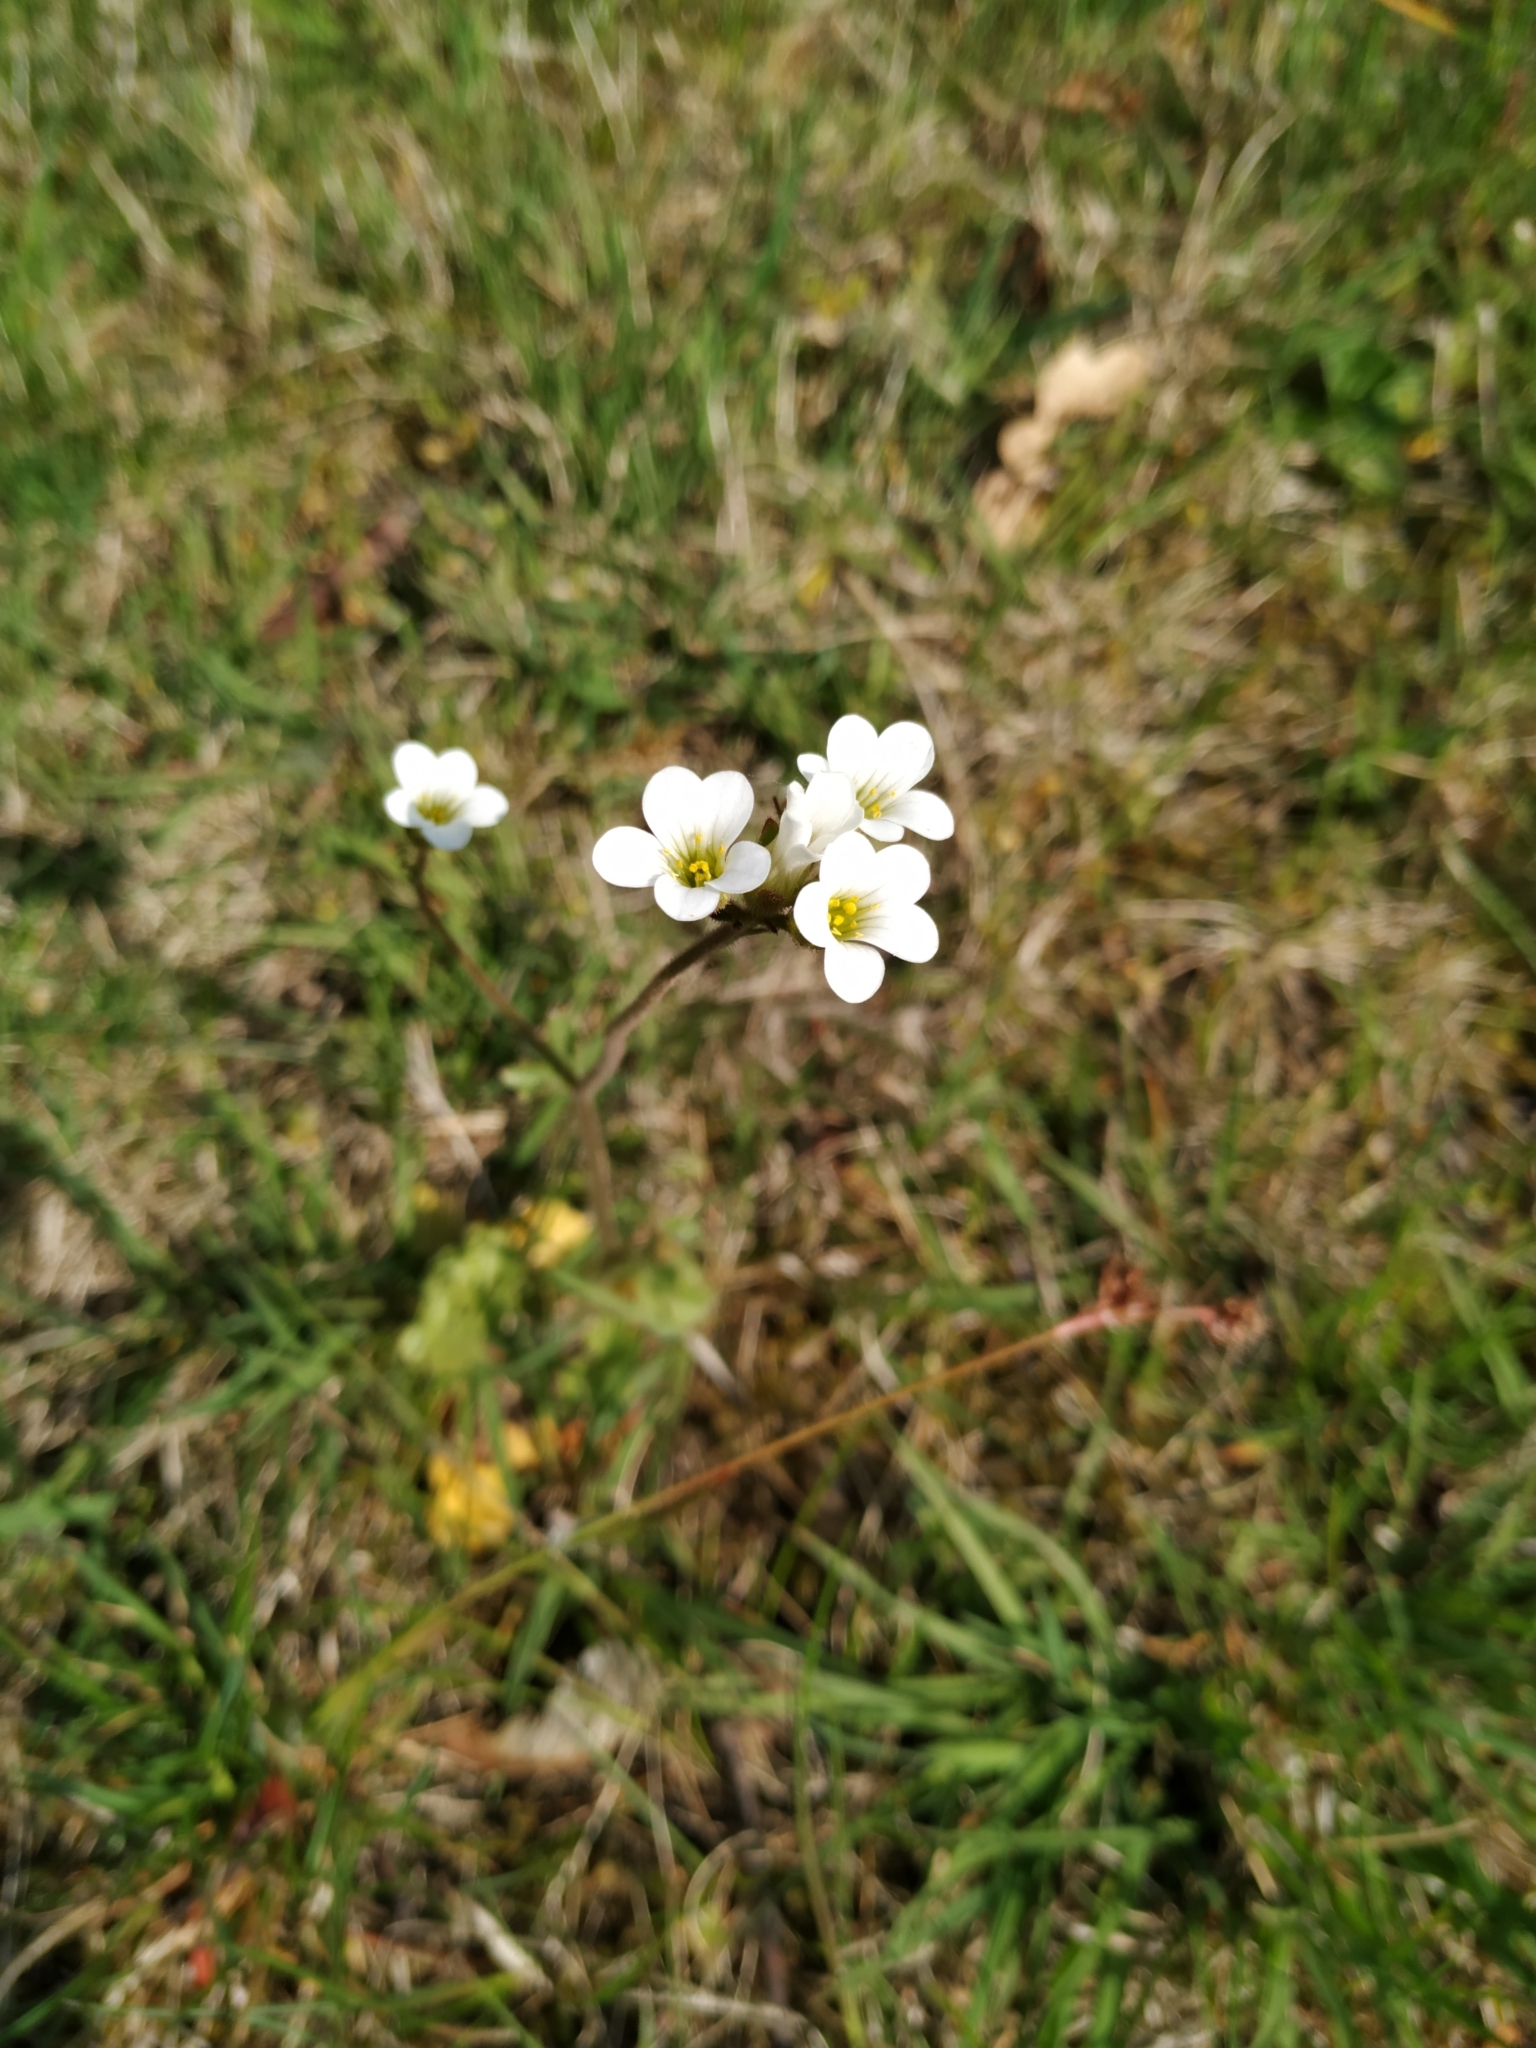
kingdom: Plantae
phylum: Tracheophyta
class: Magnoliopsida
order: Saxifragales
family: Saxifragaceae
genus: Saxifraga
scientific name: Saxifraga granulata
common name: Meadow saxifrage
